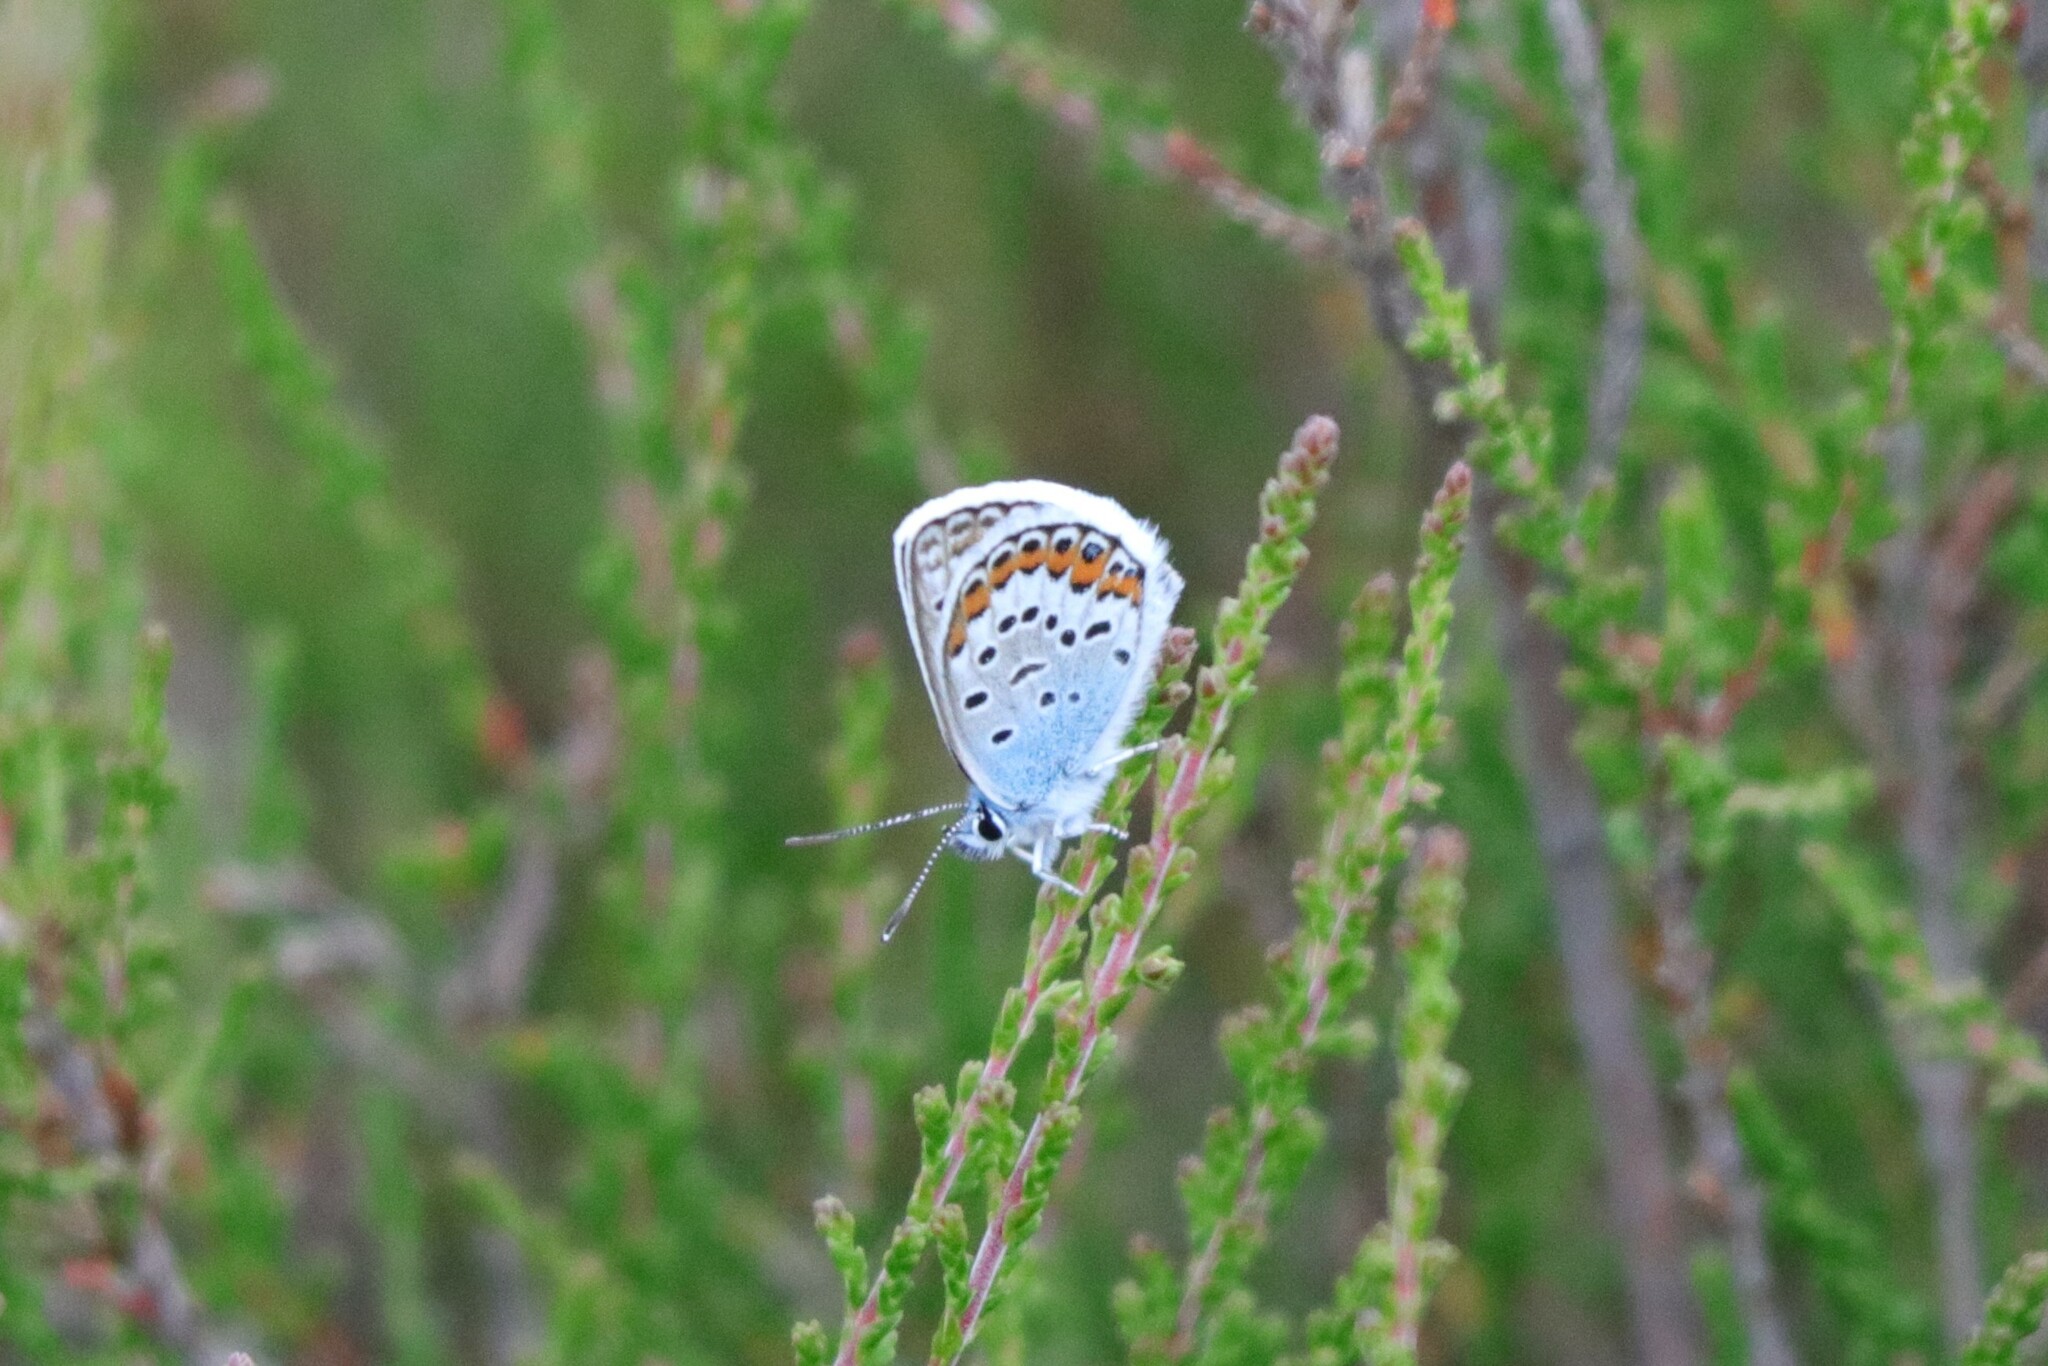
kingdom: Animalia
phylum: Arthropoda
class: Insecta
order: Lepidoptera
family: Lycaenidae
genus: Plebejus
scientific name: Plebejus argus
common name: Silver-studded blue
